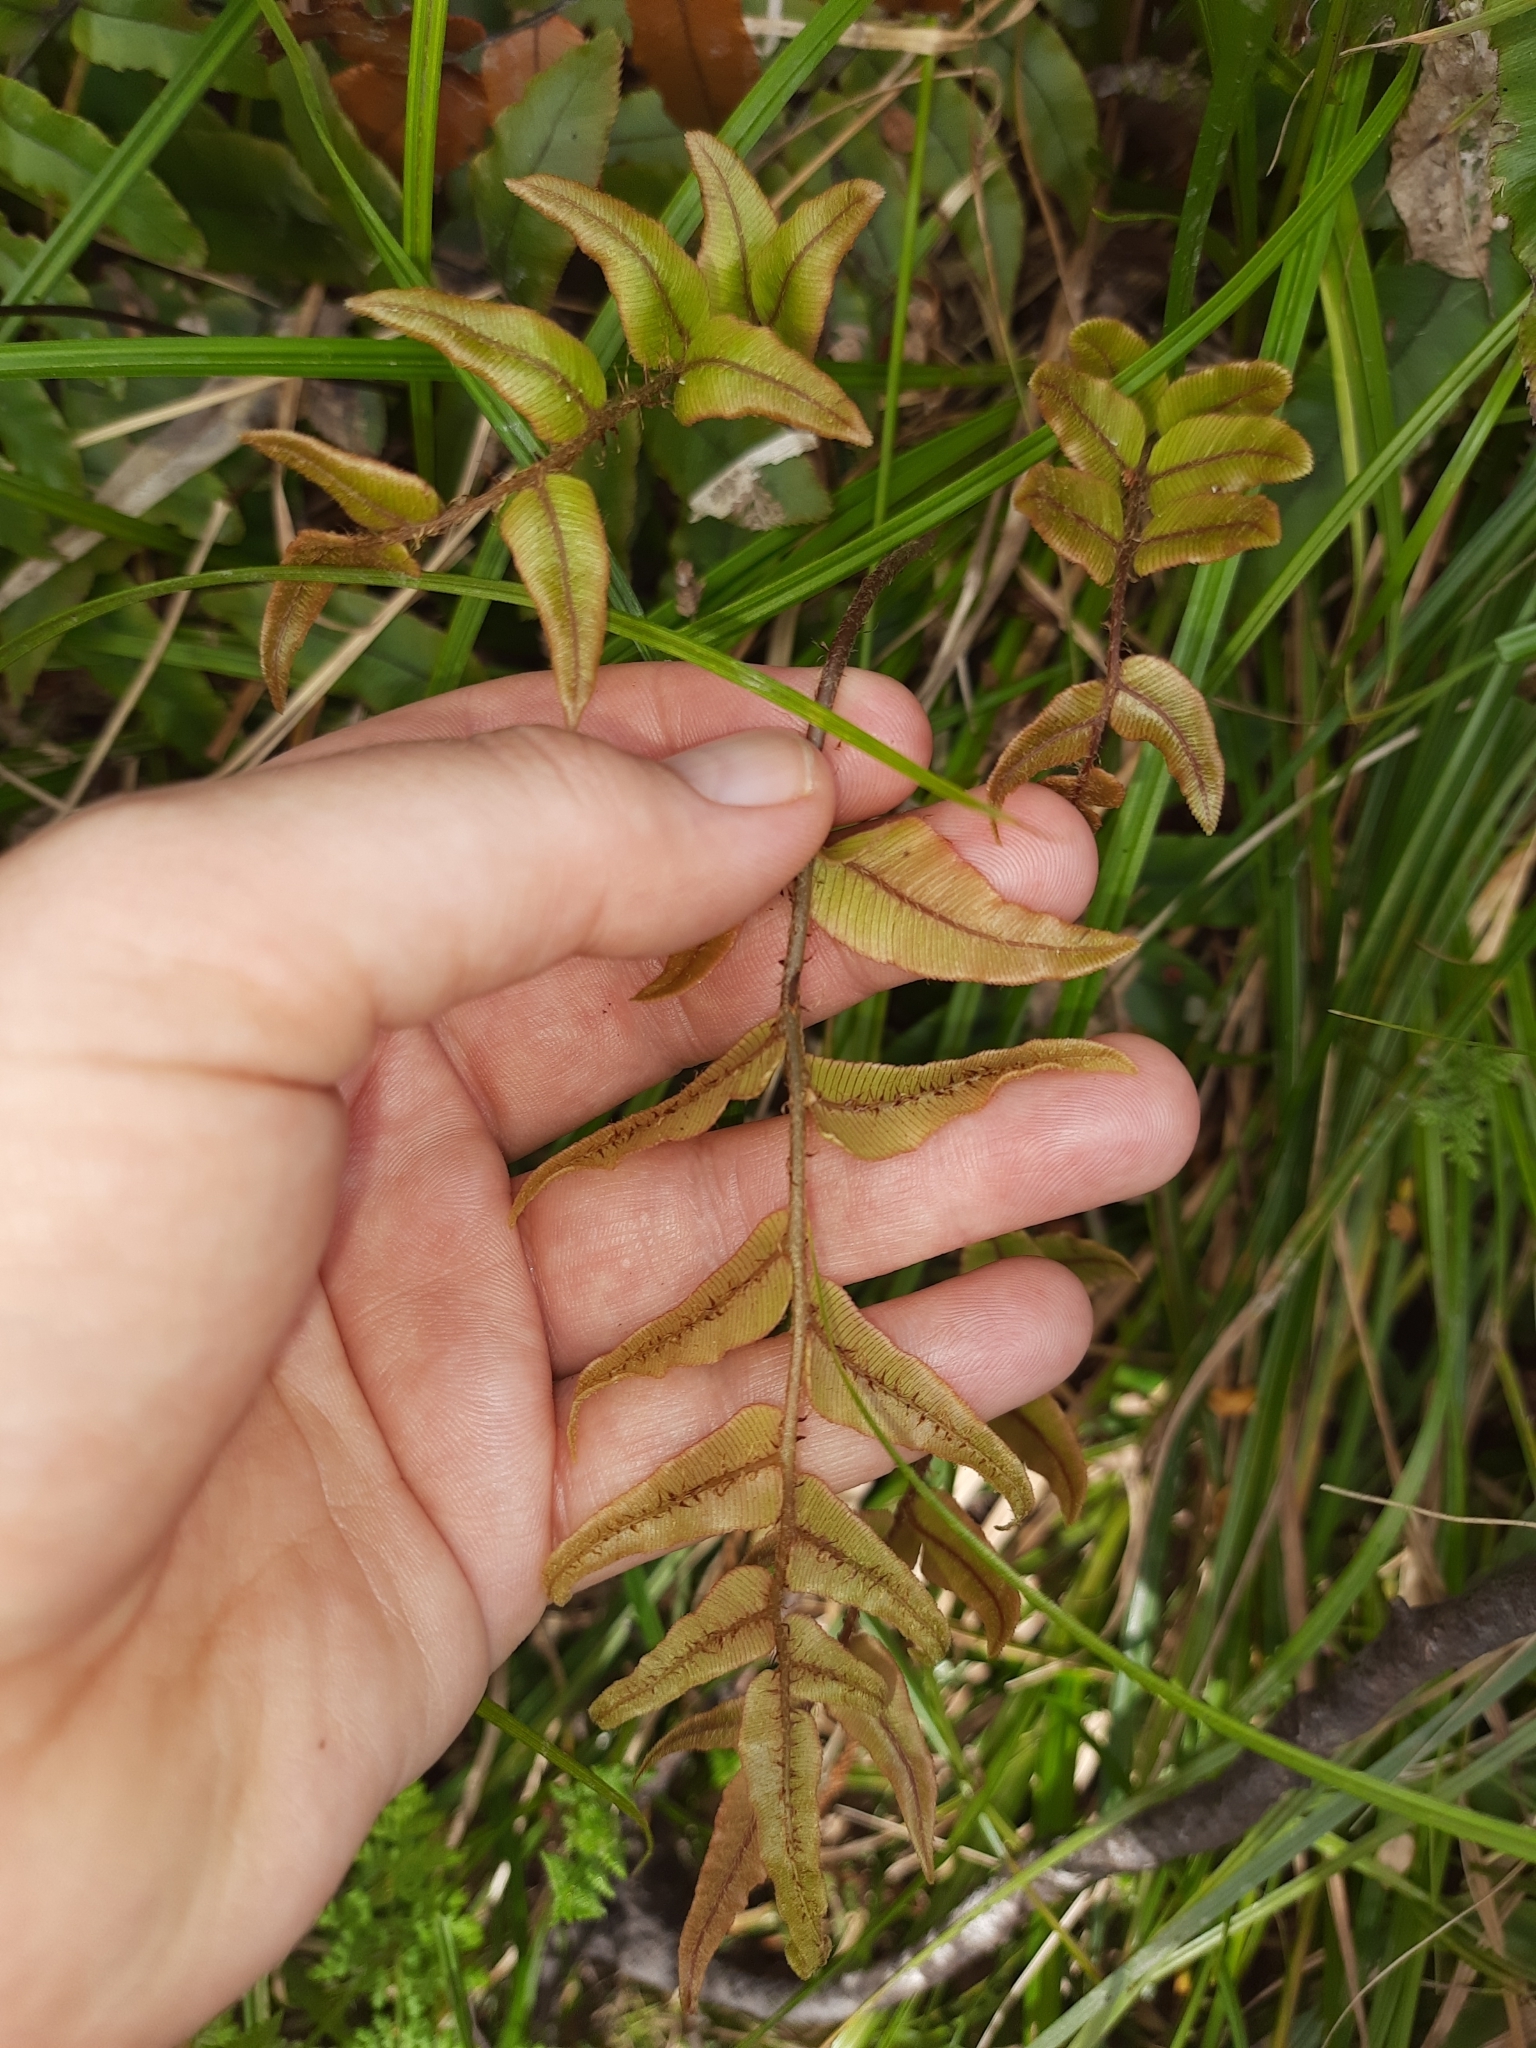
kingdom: Plantae
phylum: Tracheophyta
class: Polypodiopsida
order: Polypodiales
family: Blechnaceae
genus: Parablechnum
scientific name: Parablechnum procerum
